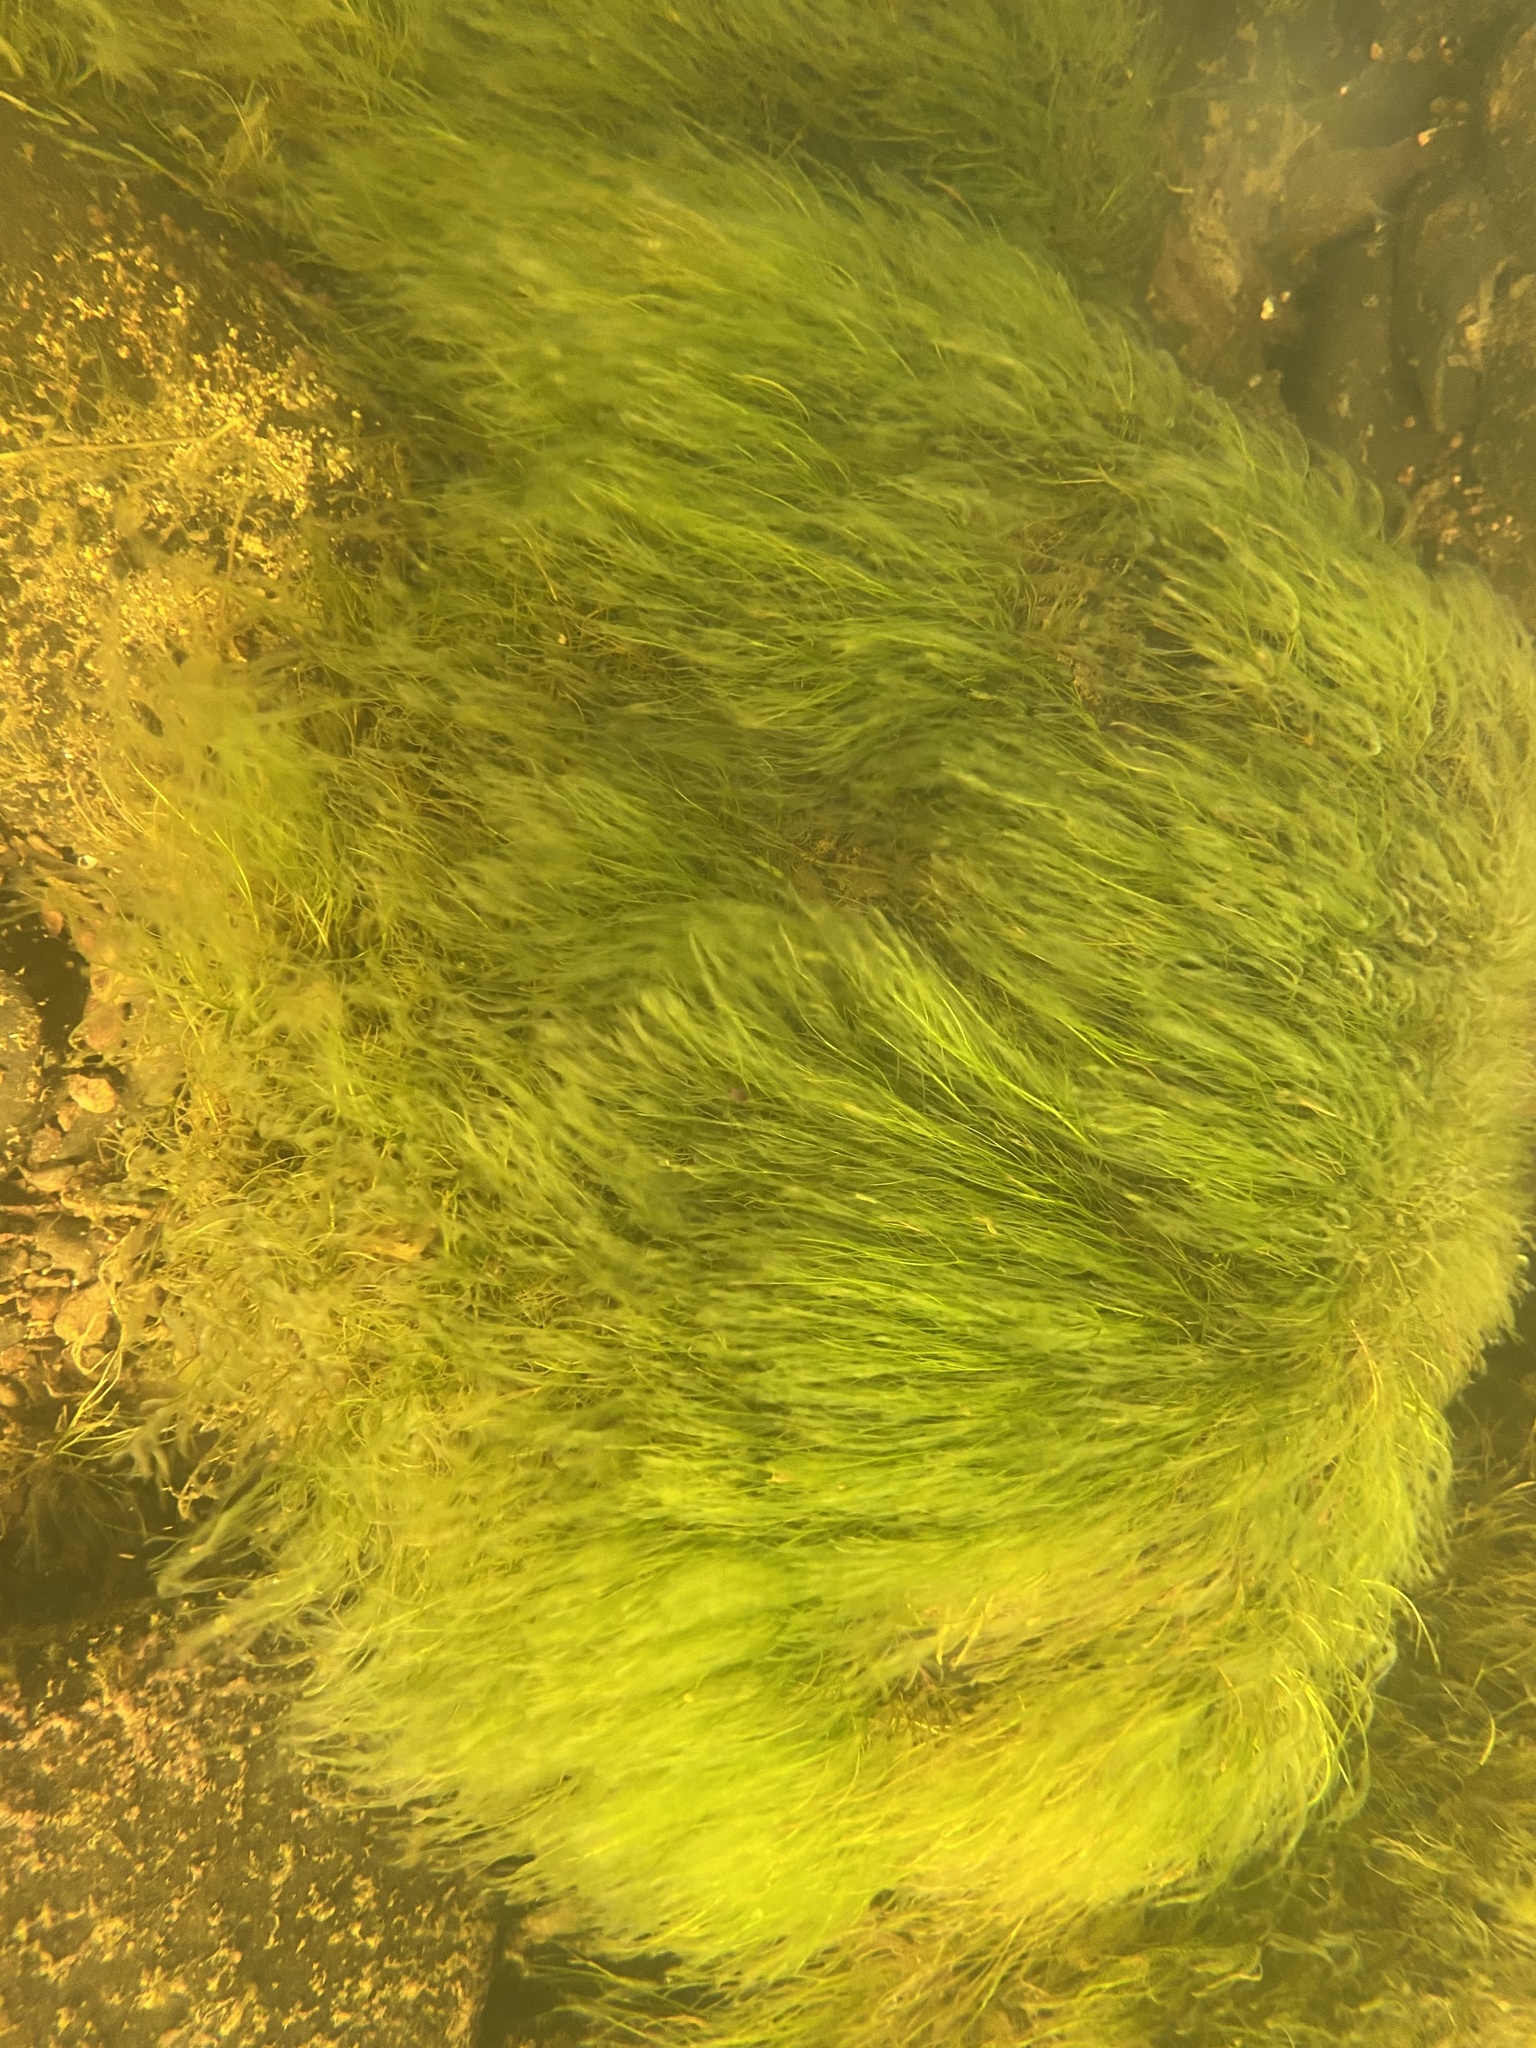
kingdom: Plantae
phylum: Tracheophyta
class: Magnoliopsida
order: Malpighiales
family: Podostemaceae
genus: Podostemum
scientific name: Podostemum ceratophyllum
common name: Horn-leaved riverweed
